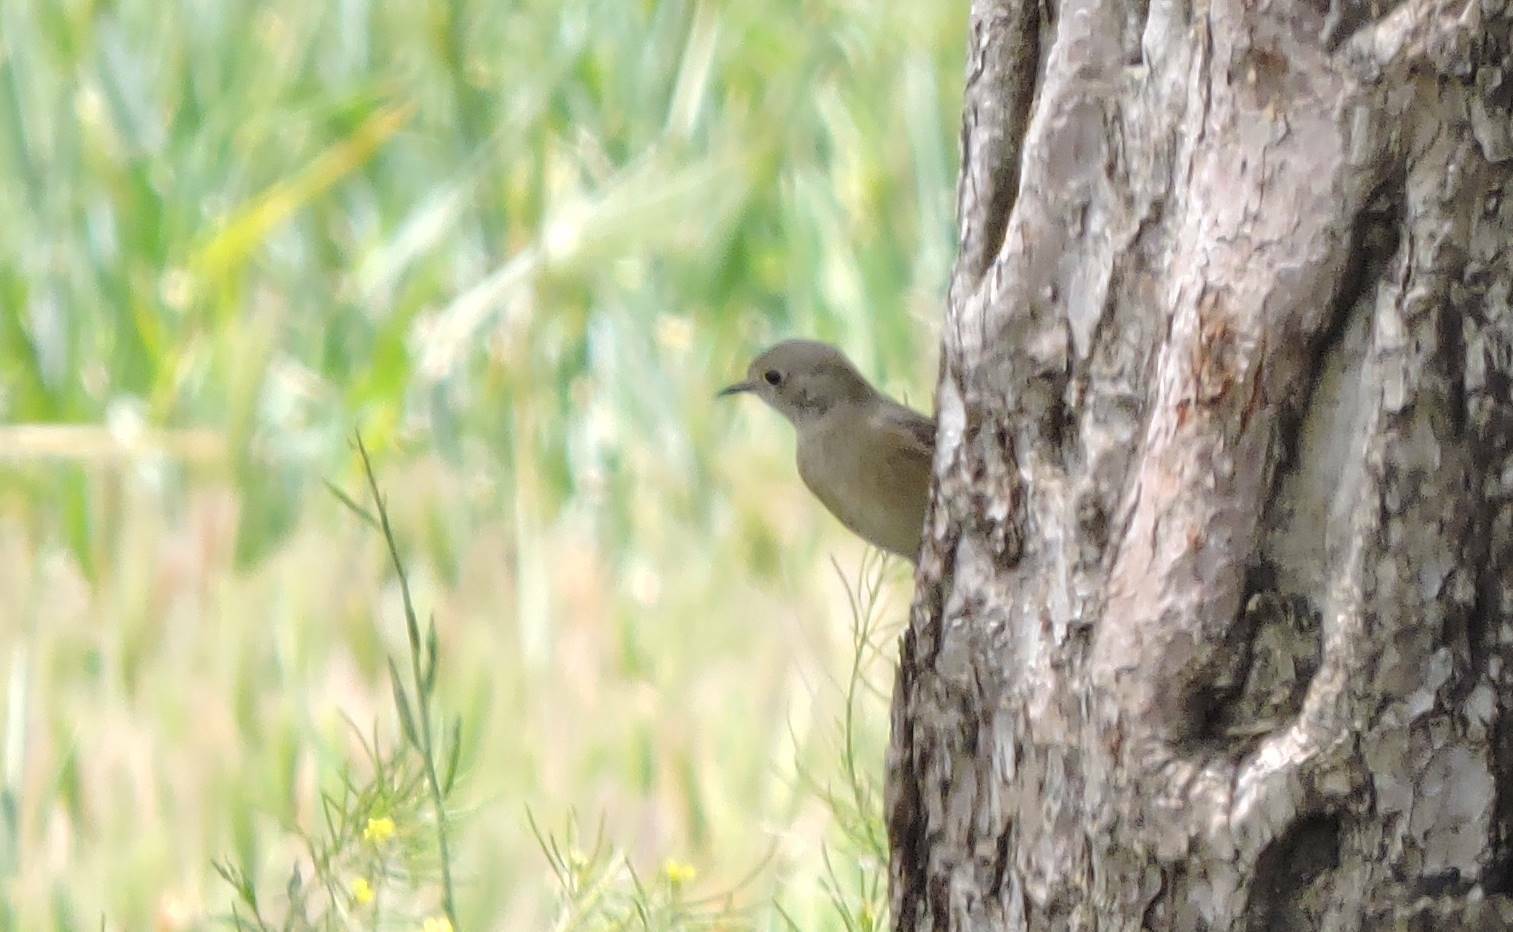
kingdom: Animalia
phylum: Chordata
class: Aves
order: Passeriformes
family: Muscicapidae
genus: Phoenicurus
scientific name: Phoenicurus ochruros
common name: Black redstart
